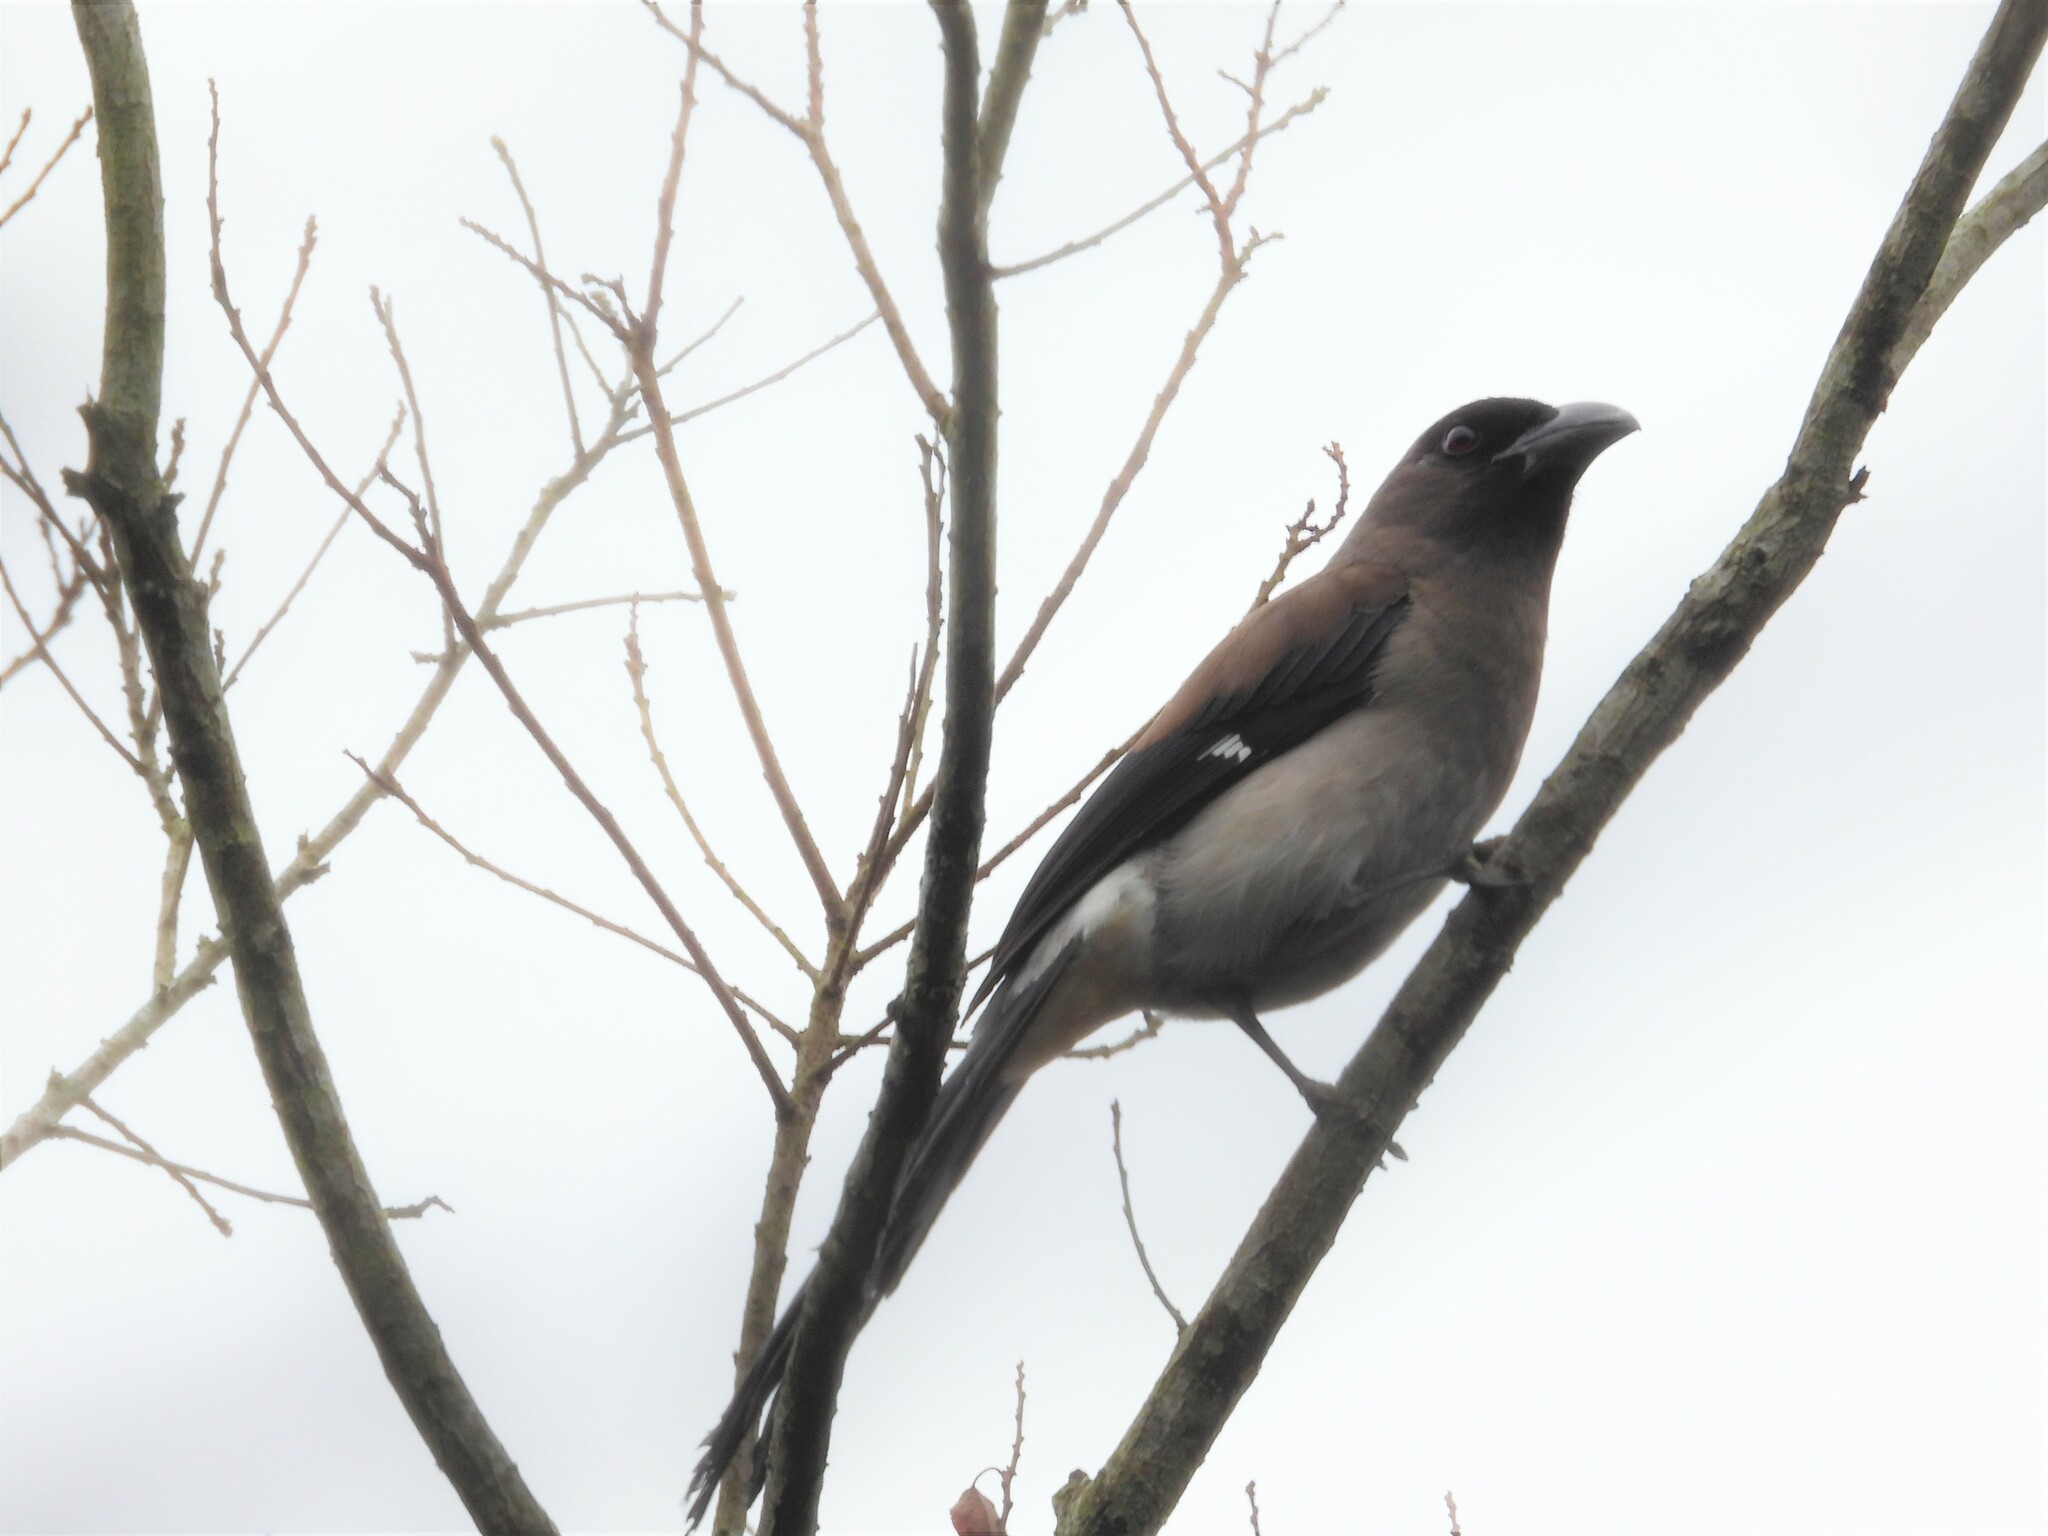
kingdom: Animalia
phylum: Chordata
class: Aves
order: Passeriformes
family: Corvidae
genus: Dendrocitta
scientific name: Dendrocitta formosae
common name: Grey treepie
